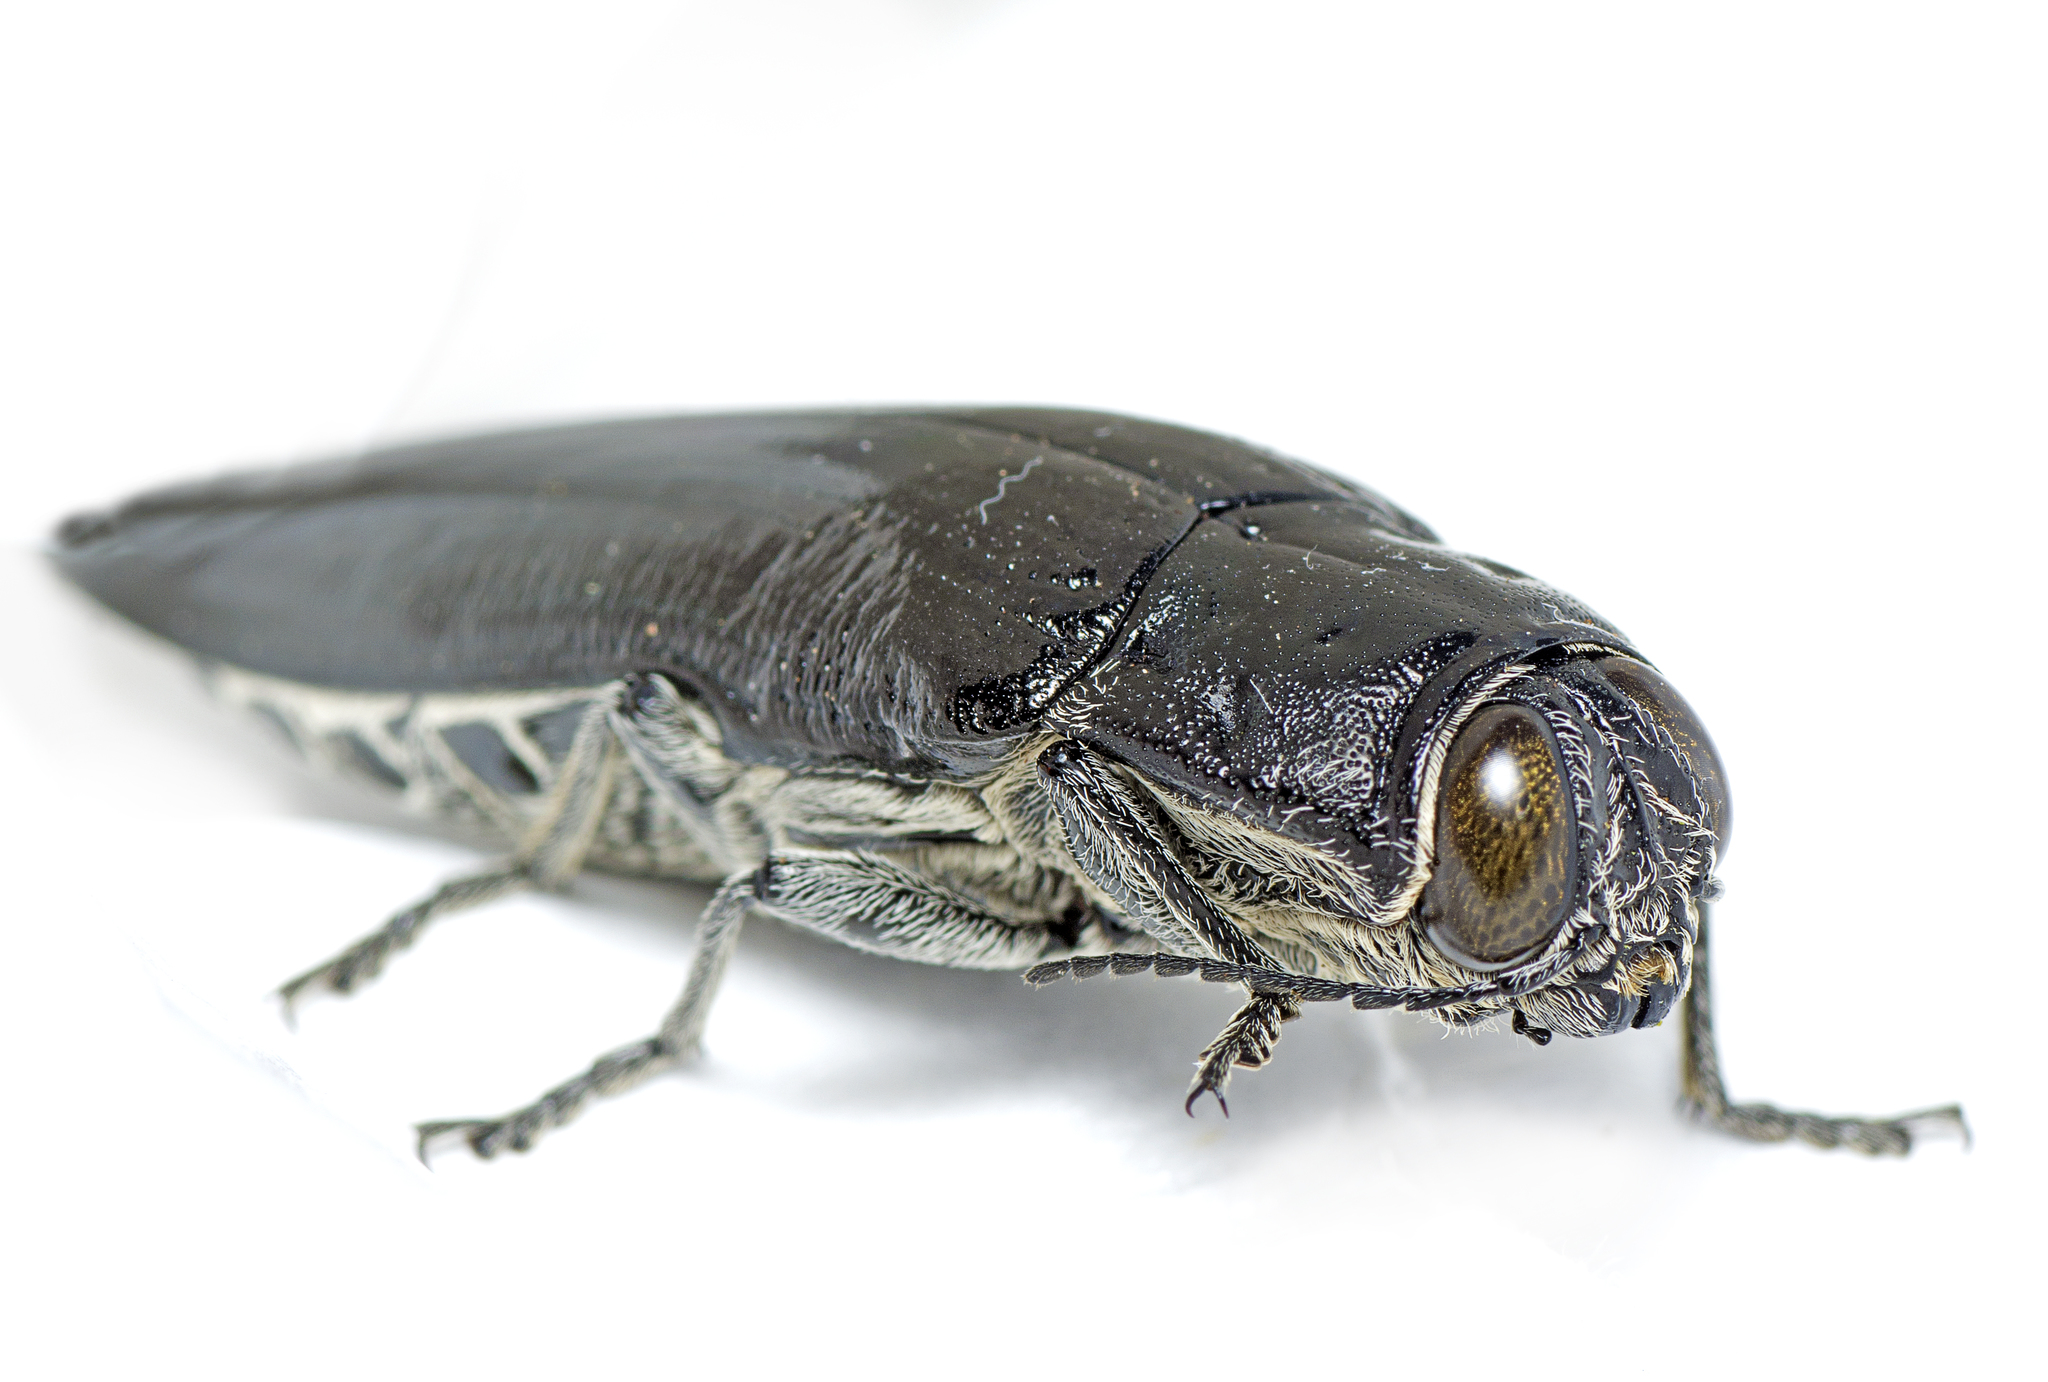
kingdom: Animalia
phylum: Arthropoda
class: Insecta
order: Coleoptera
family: Buprestidae
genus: Cyrioides
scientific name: Cyrioides australis
